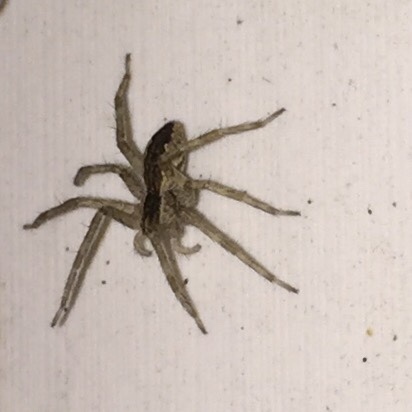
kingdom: Animalia
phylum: Arthropoda
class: Arachnida
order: Araneae
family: Pisauridae
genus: Pisaurina
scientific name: Pisaurina mira
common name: American nursery web spider
